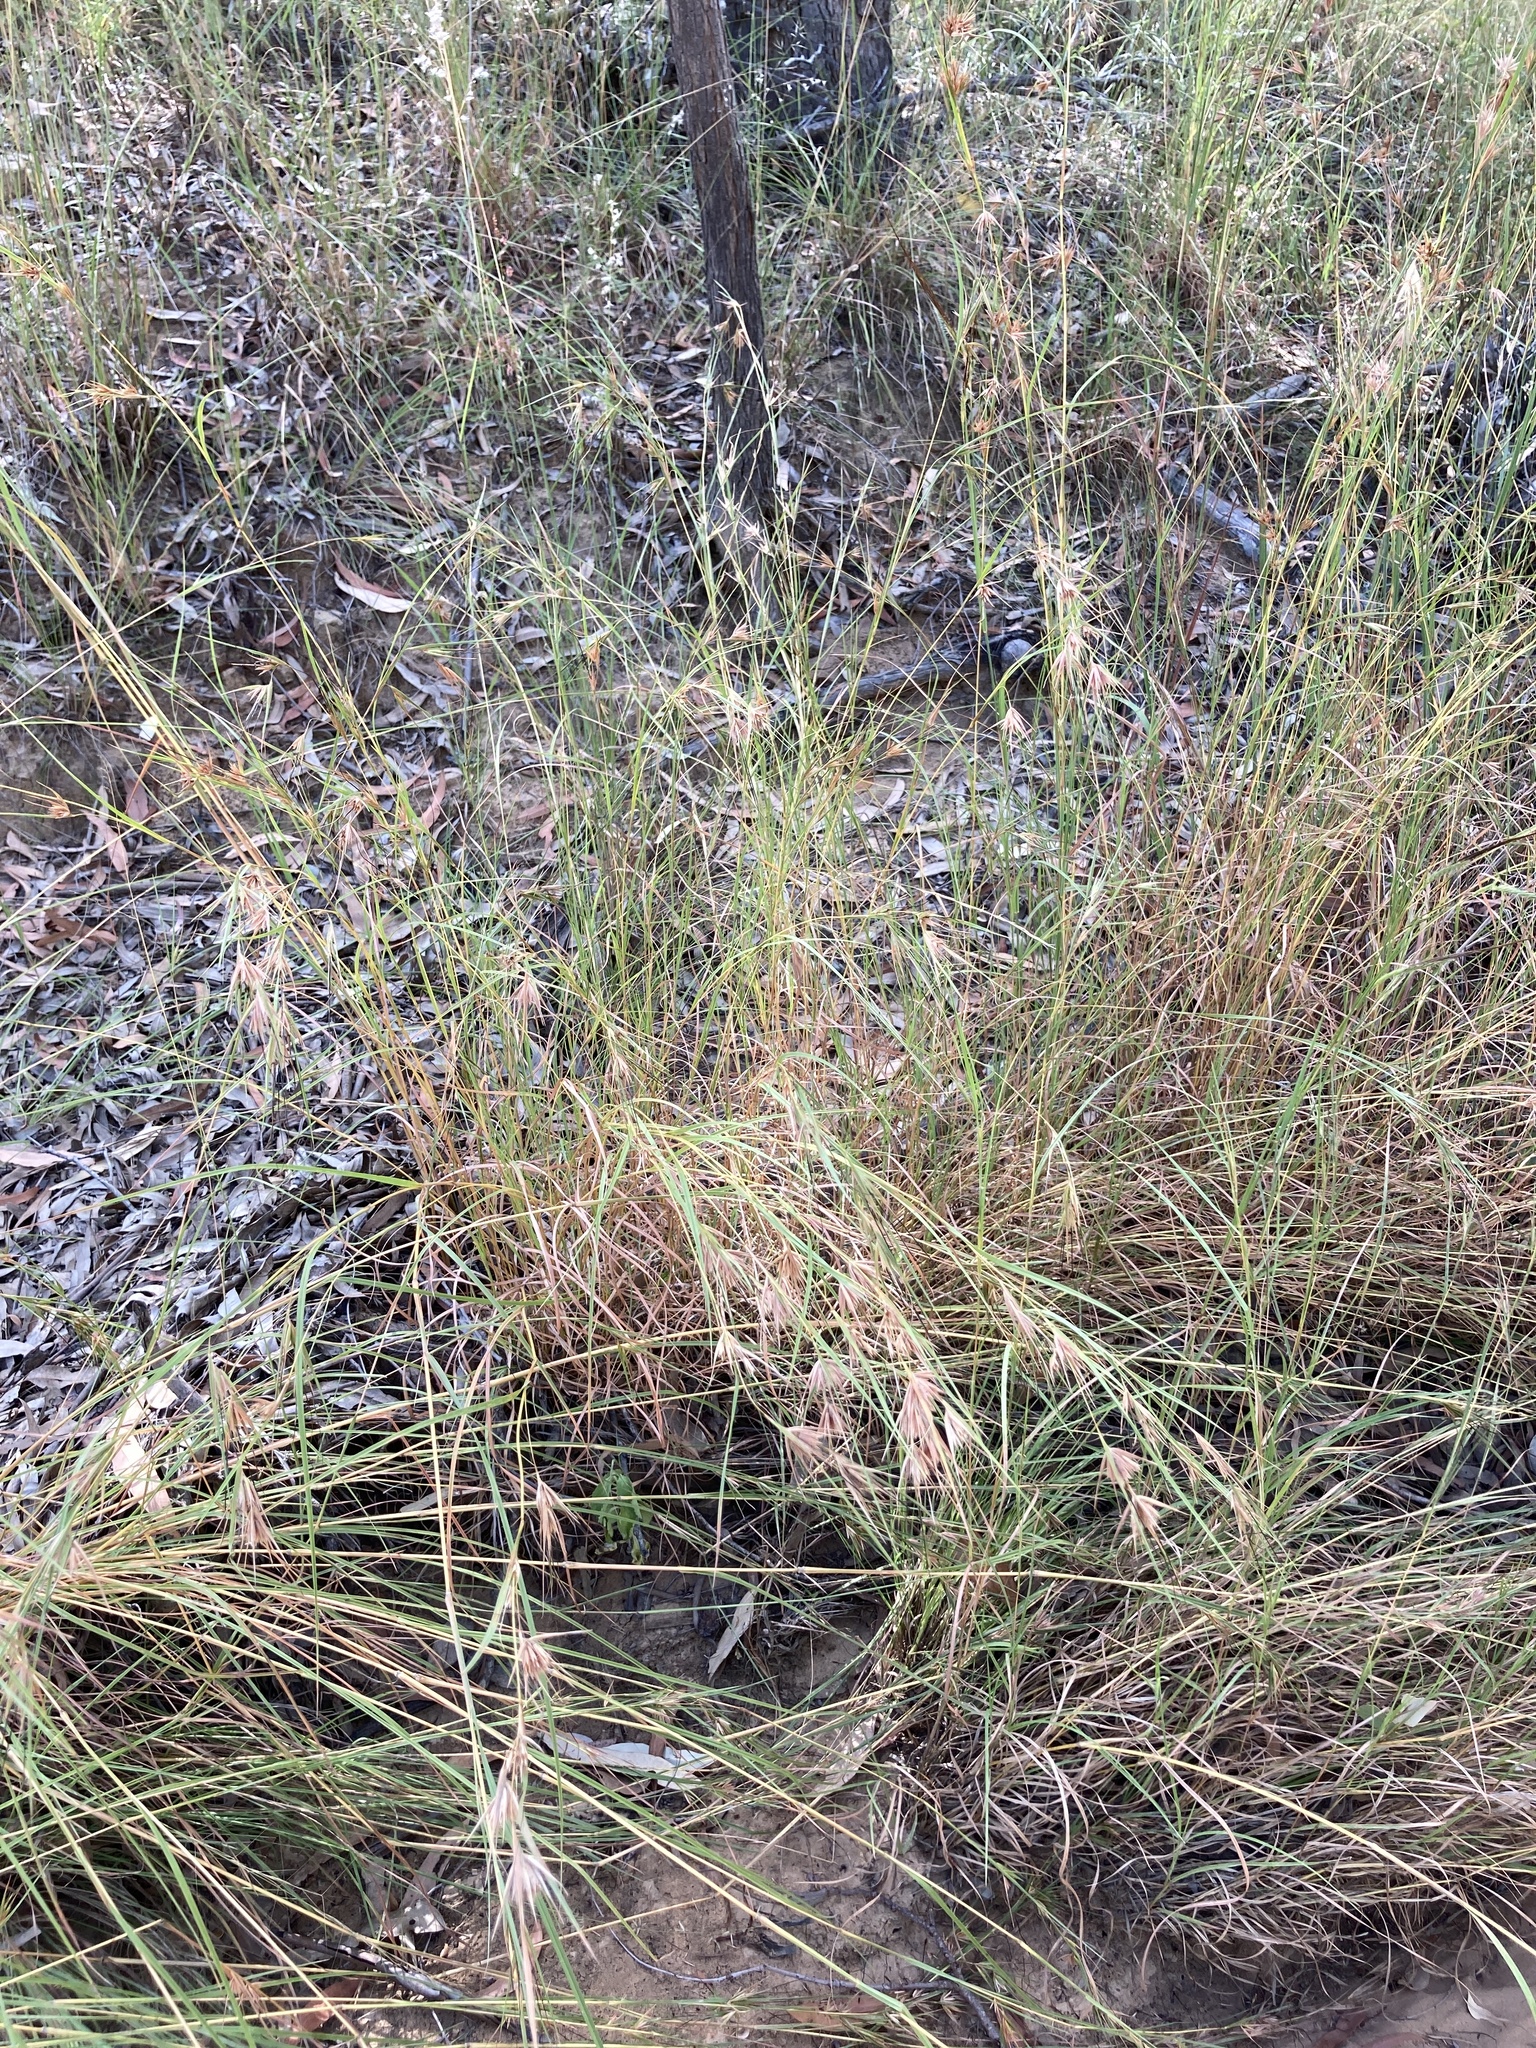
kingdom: Plantae
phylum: Tracheophyta
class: Liliopsida
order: Poales
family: Poaceae
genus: Themeda
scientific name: Themeda triandra
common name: Kangaroo grass
